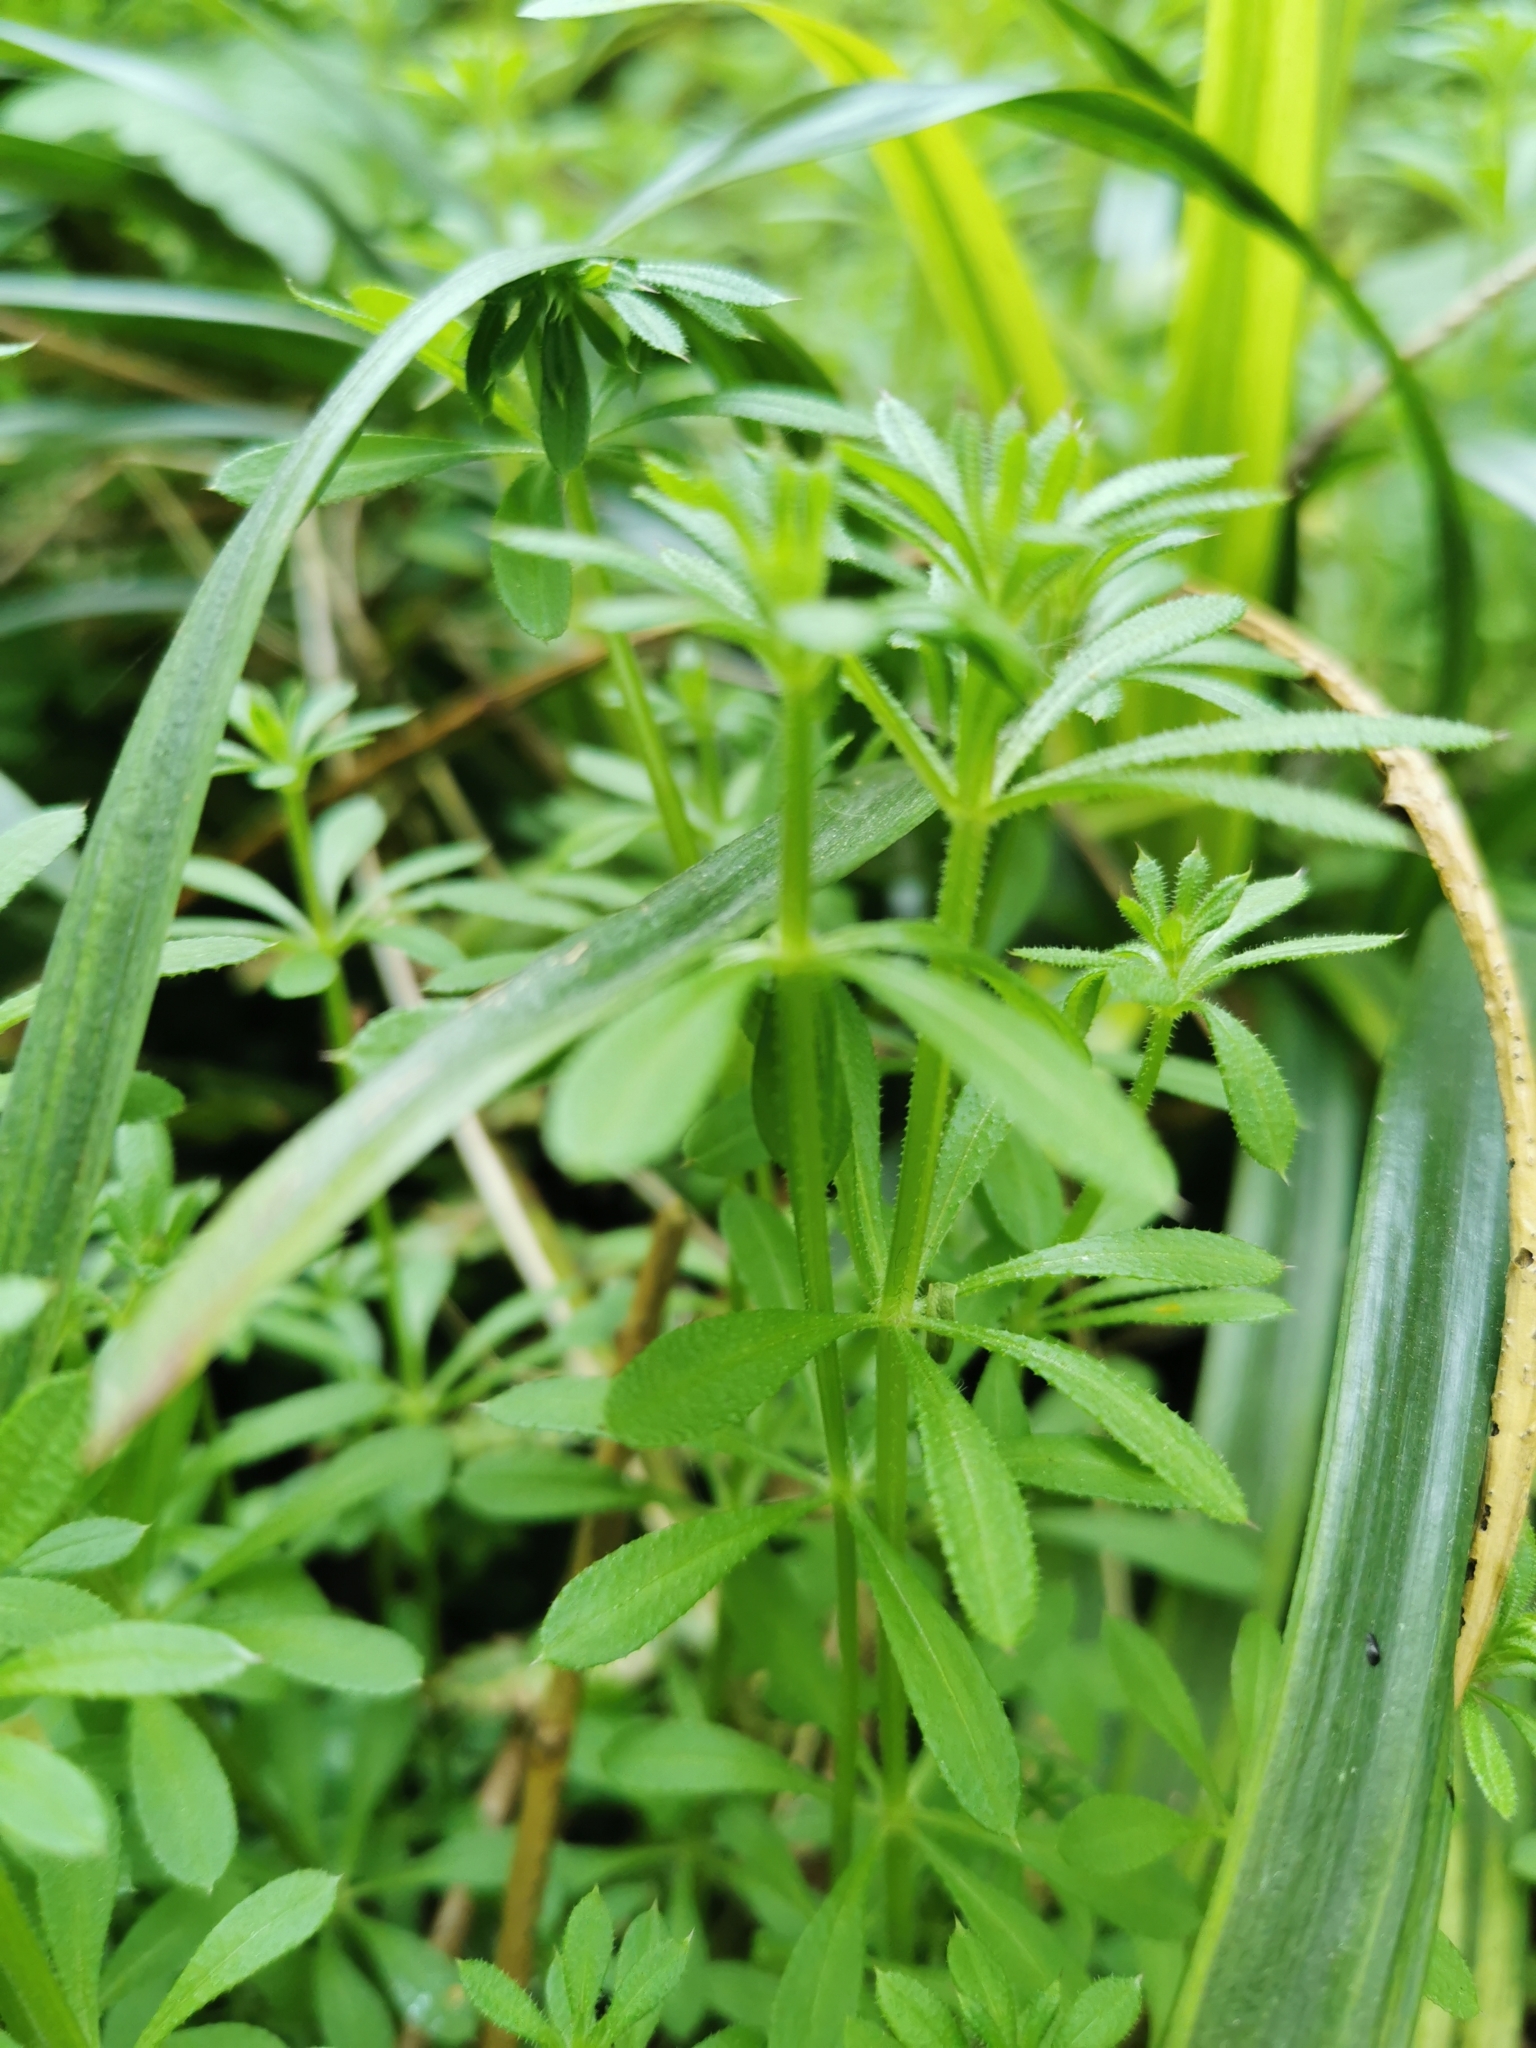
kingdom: Plantae
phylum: Tracheophyta
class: Magnoliopsida
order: Gentianales
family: Rubiaceae
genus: Galium
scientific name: Galium aparine
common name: Cleavers
